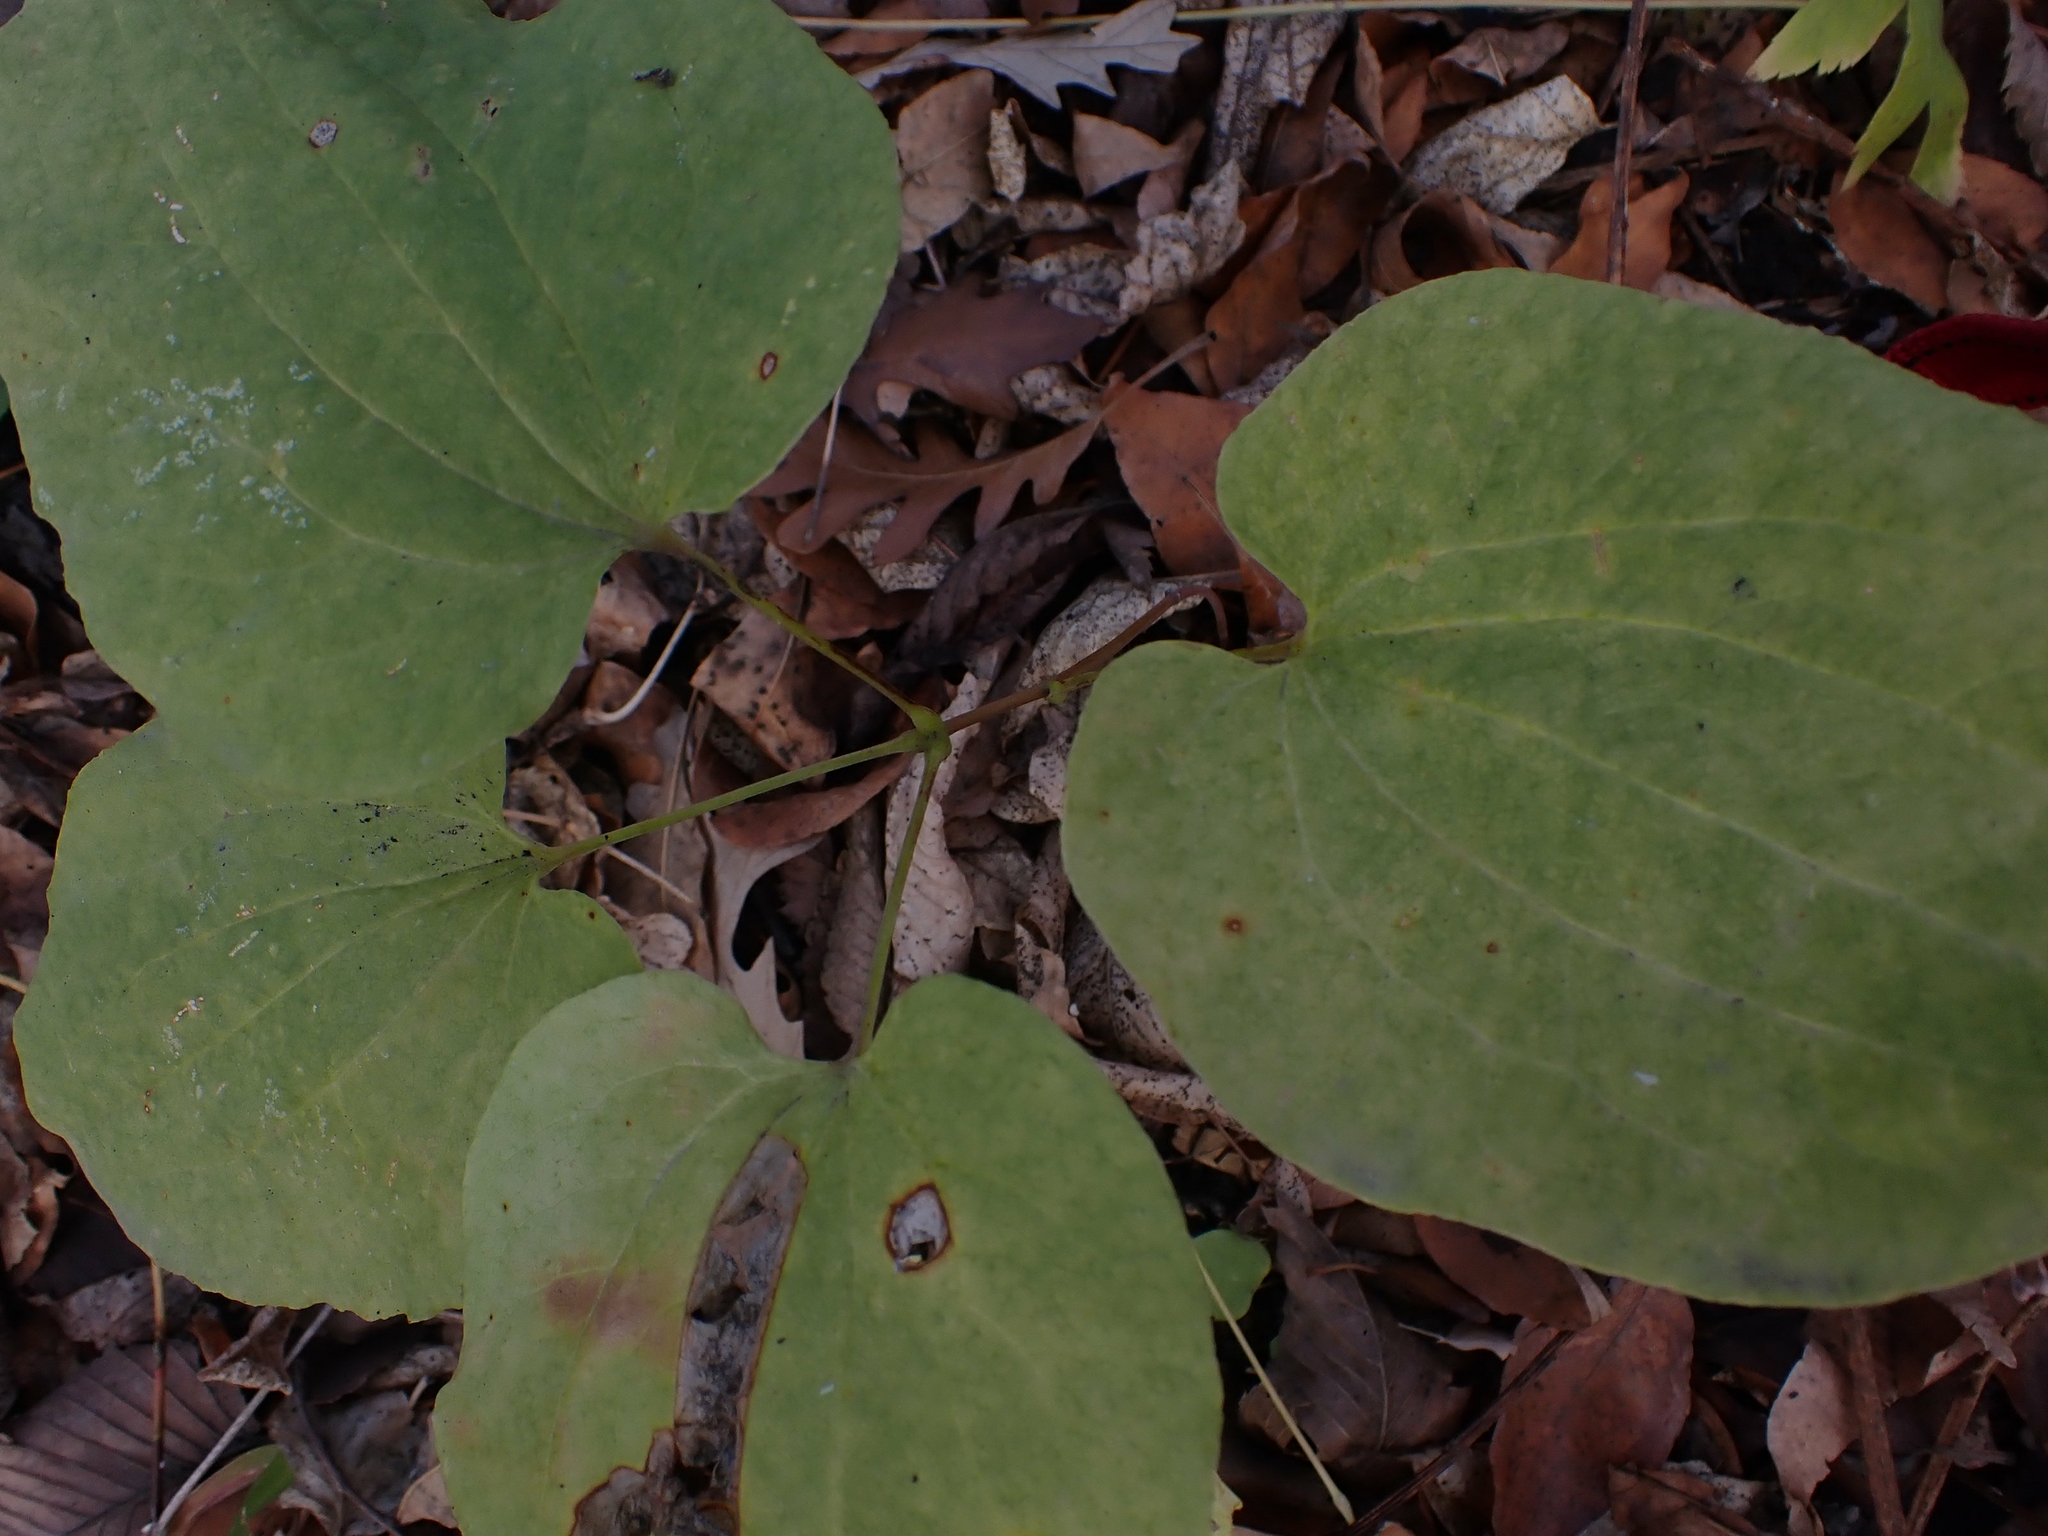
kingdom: Plantae
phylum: Tracheophyta
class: Liliopsida
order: Liliales
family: Smilacaceae
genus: Smilax
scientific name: Smilax lasioneura
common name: Blue ridge carrionflower
